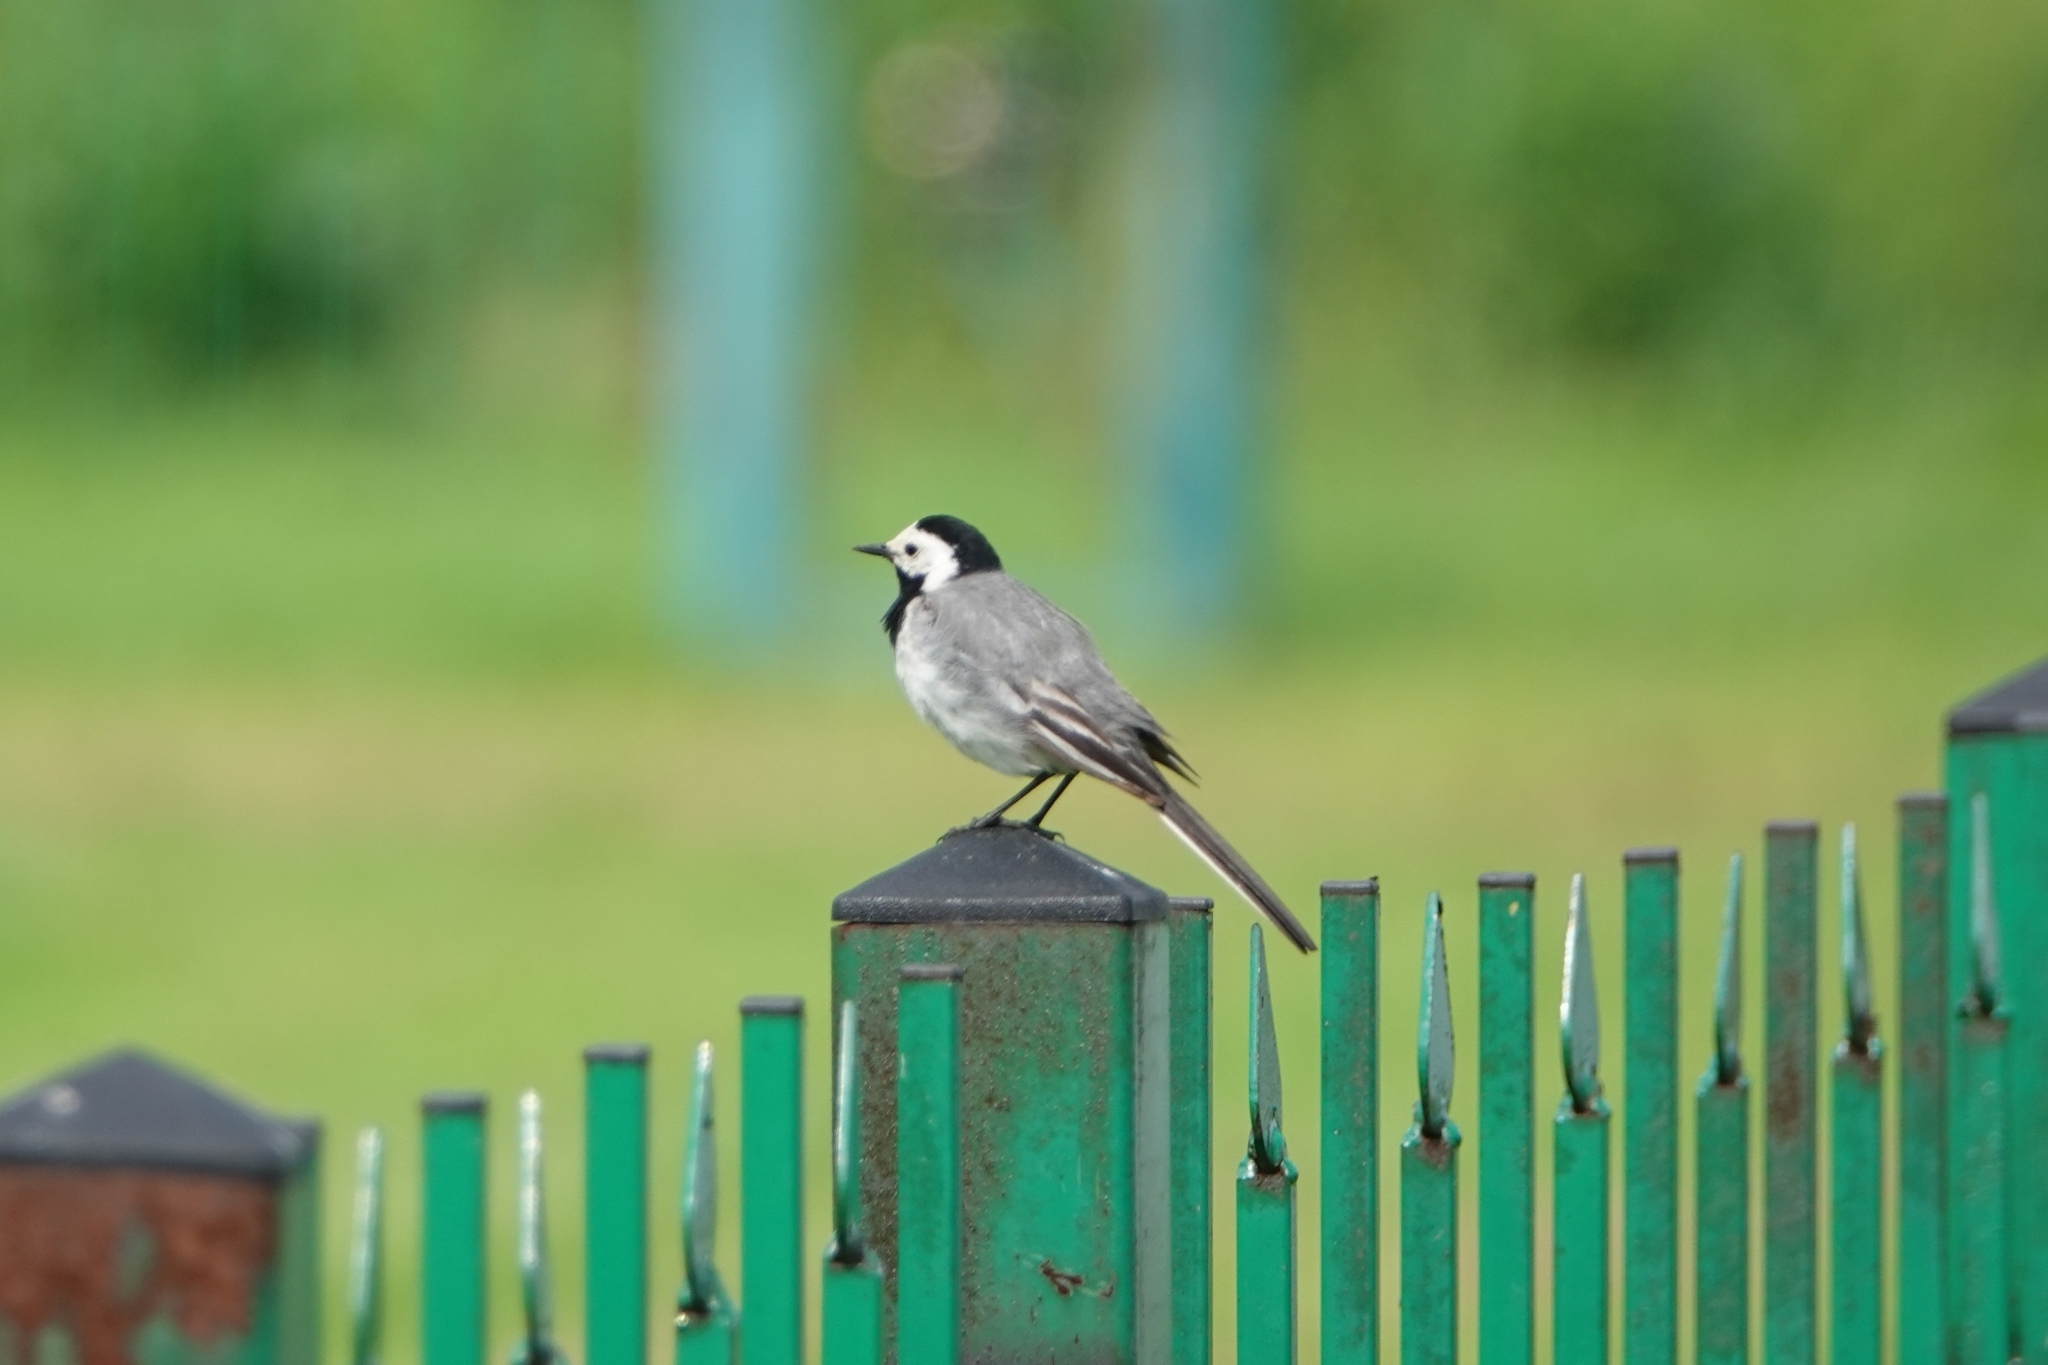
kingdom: Animalia
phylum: Chordata
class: Aves
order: Passeriformes
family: Motacillidae
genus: Motacilla
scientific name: Motacilla alba
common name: White wagtail
